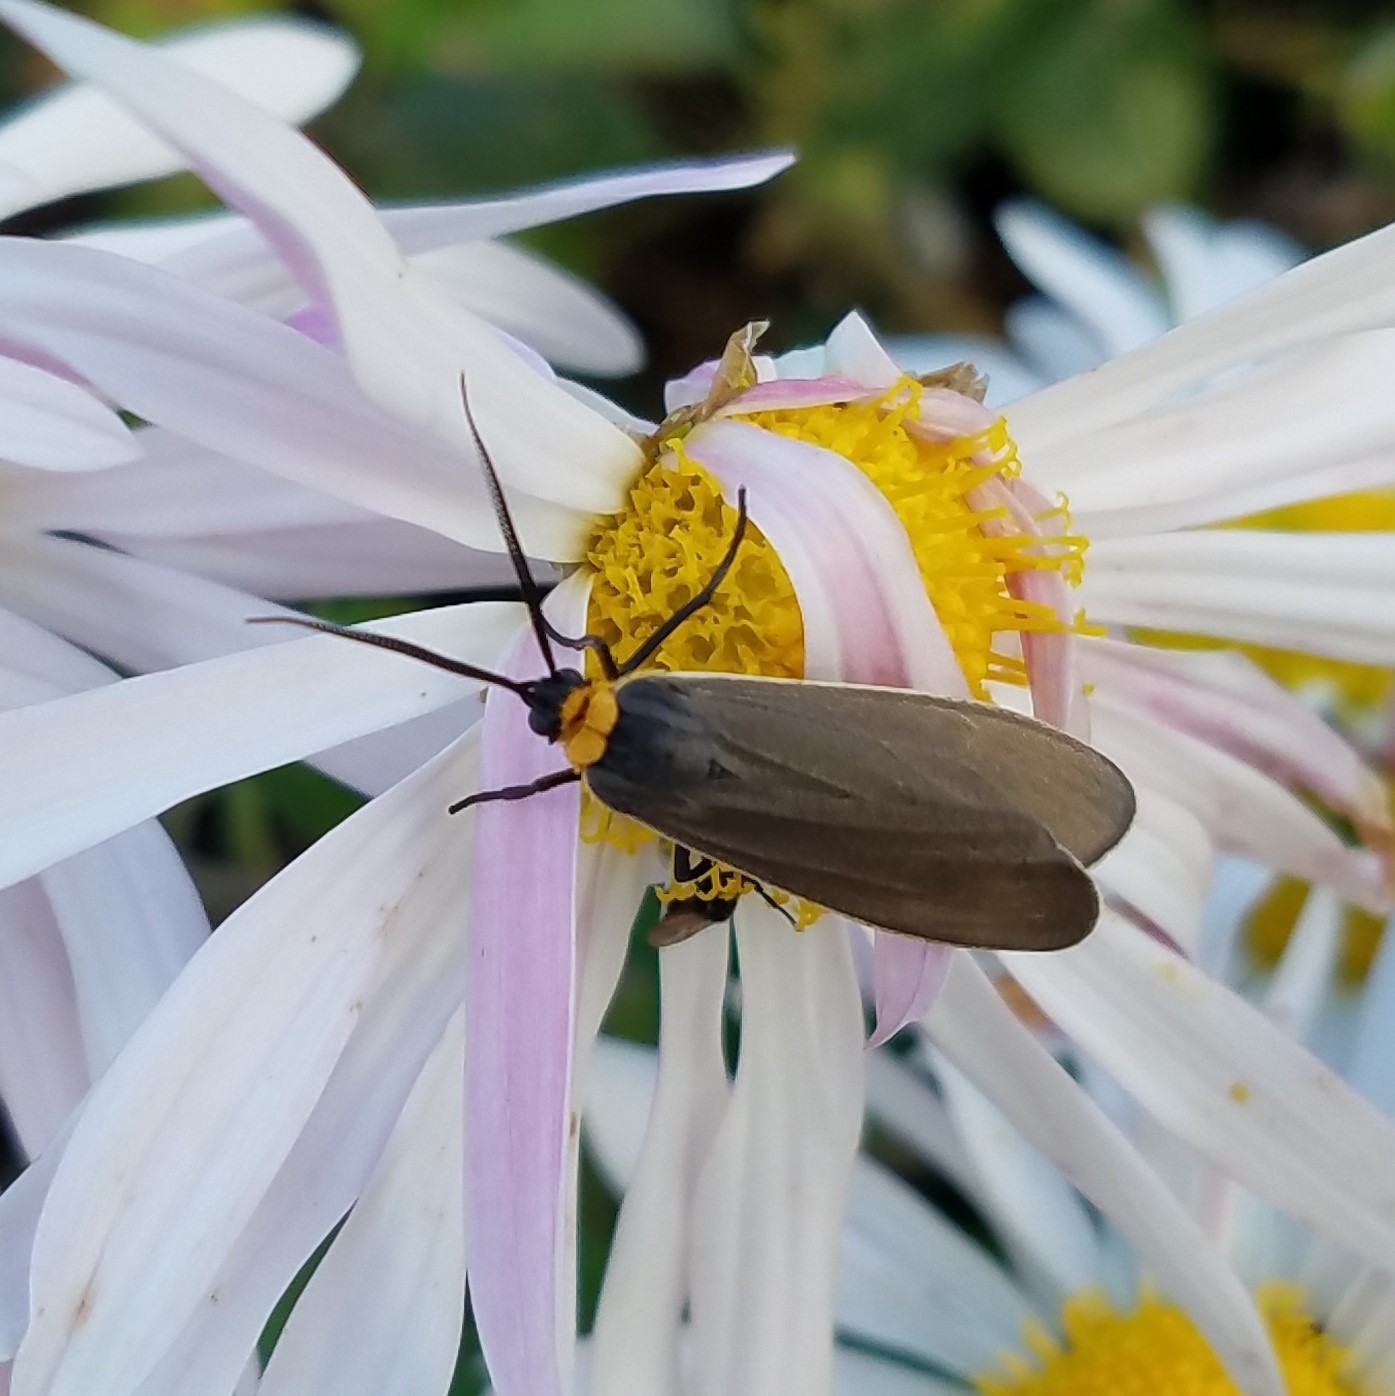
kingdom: Animalia
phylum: Arthropoda
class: Insecta
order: Lepidoptera
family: Erebidae
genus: Cisseps
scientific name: Cisseps fulvicollis
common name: Yellow-collared scape moth
